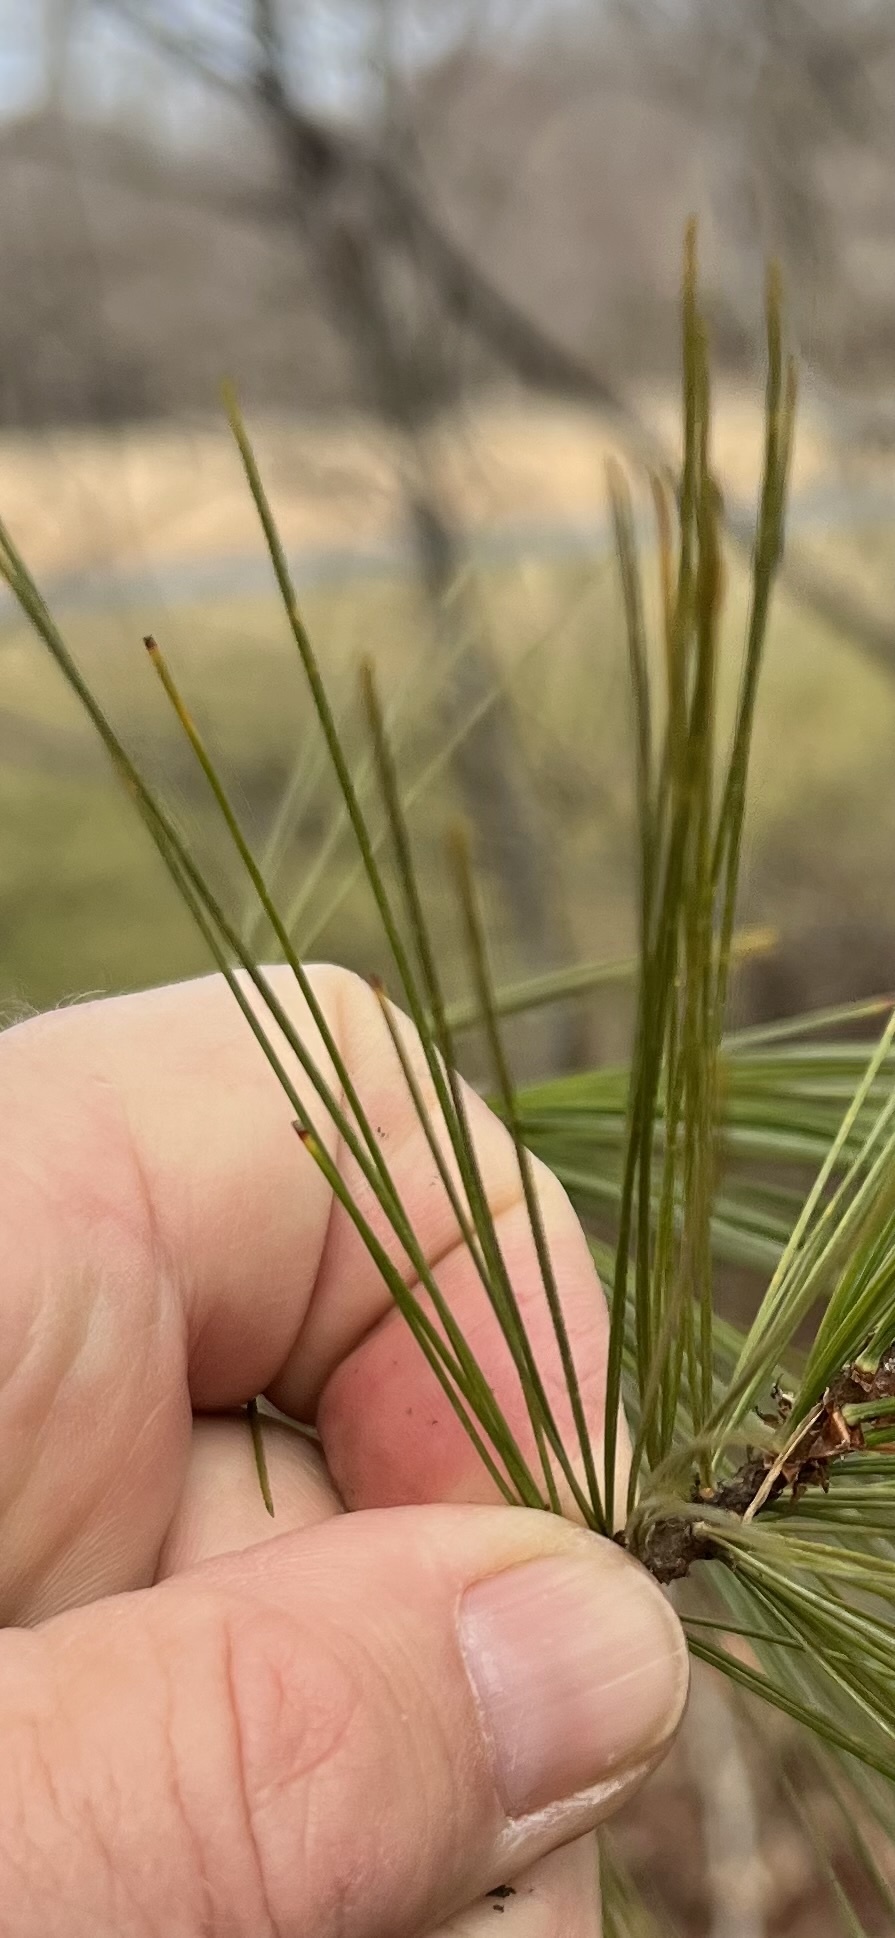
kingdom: Plantae
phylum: Tracheophyta
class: Pinopsida
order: Pinales
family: Pinaceae
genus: Pinus
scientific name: Pinus strobus
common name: Weymouth pine
